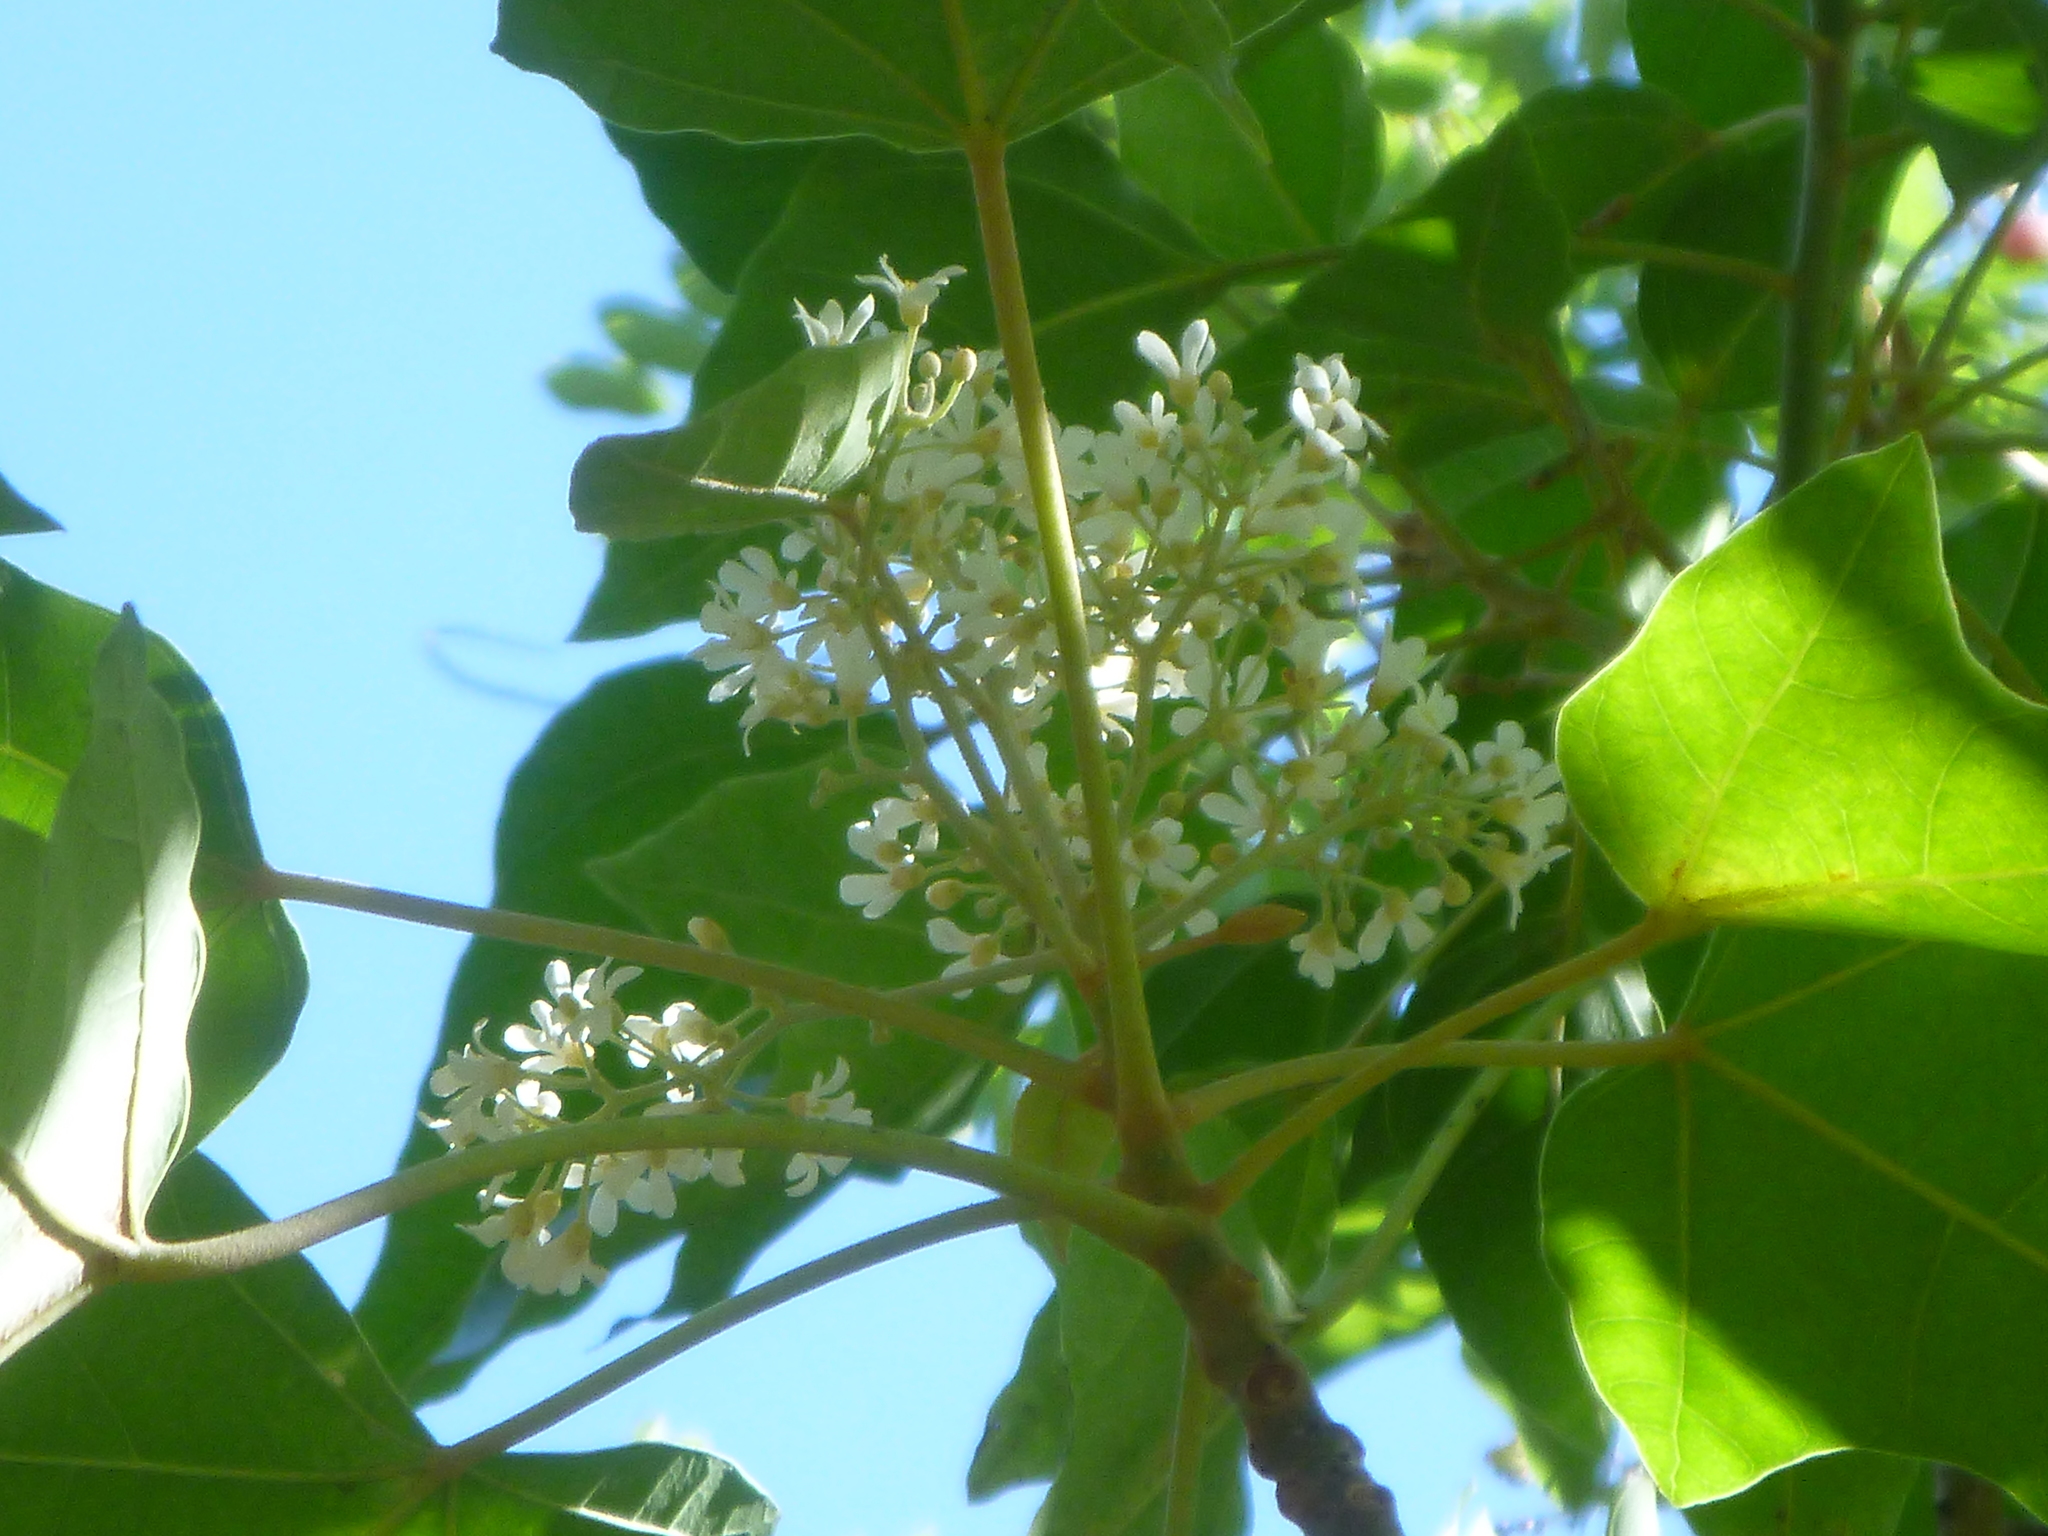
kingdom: Plantae
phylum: Tracheophyta
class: Magnoliopsida
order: Malpighiales
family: Euphorbiaceae
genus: Aleurites
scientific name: Aleurites moluccanus
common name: Candlenut tree
